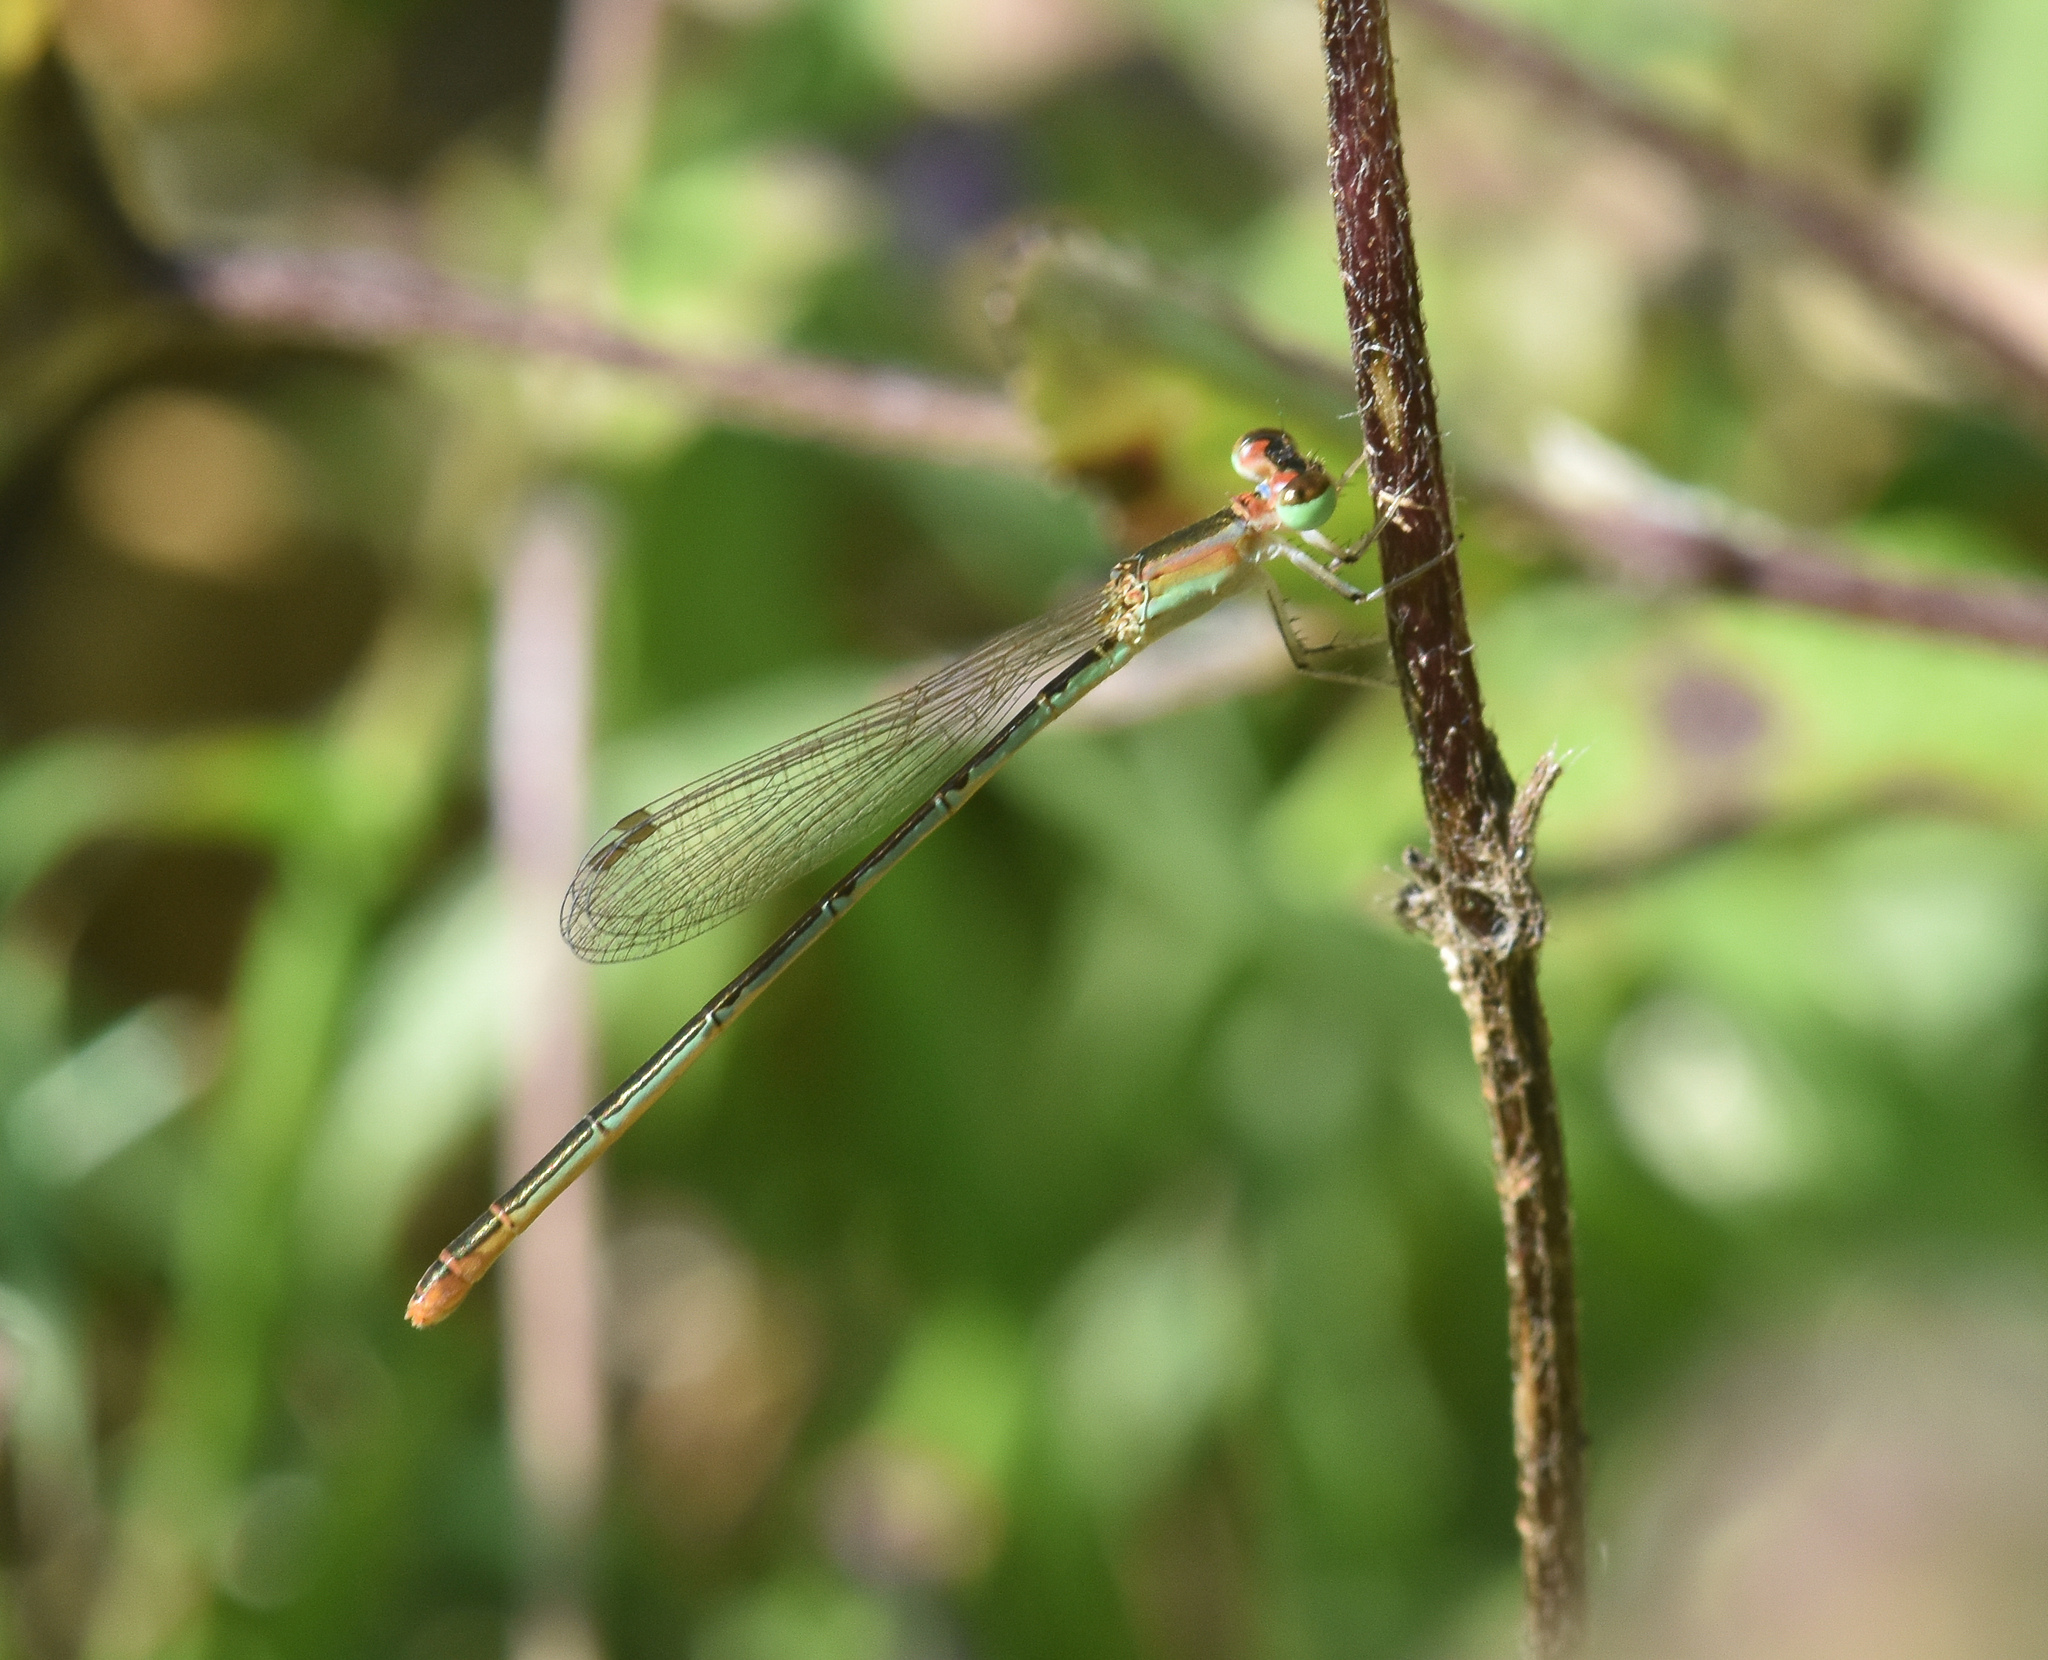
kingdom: Animalia
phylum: Arthropoda
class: Insecta
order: Odonata
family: Coenagrionidae
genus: Agriocnemis
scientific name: Agriocnemis pygmaea
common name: Pygmy wisp
